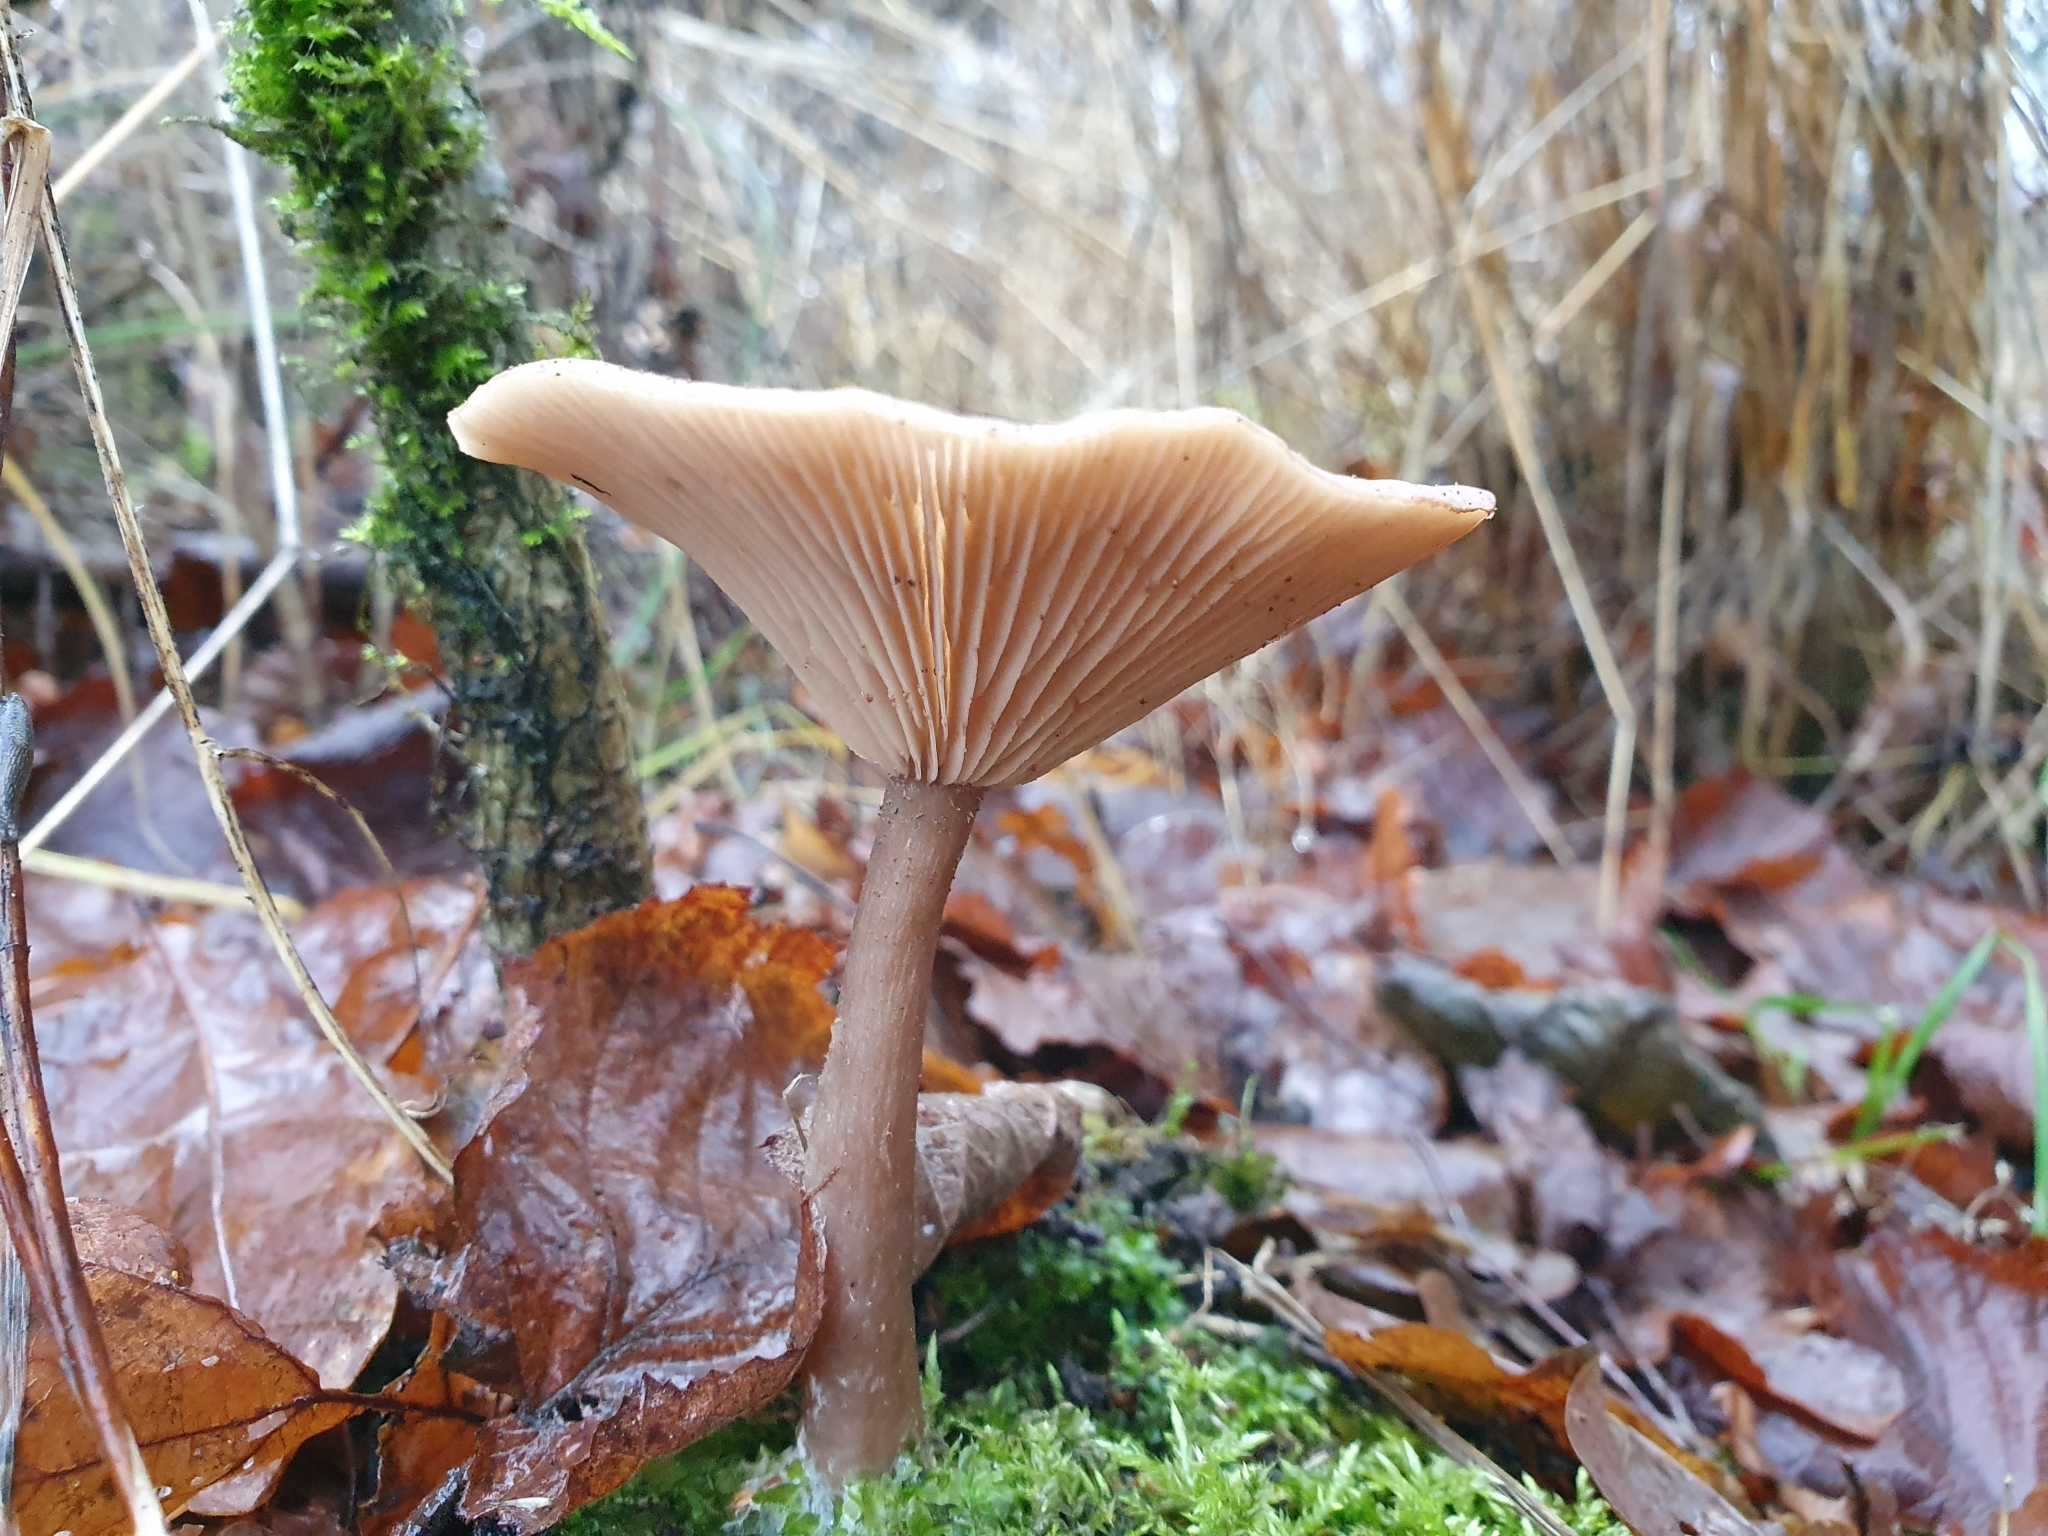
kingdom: Fungi
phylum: Basidiomycota
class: Agaricomycetes
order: Agaricales
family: Pseudoclitocybaceae
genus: Pseudoclitocybe
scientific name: Pseudoclitocybe cyathiformis
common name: Goblet
